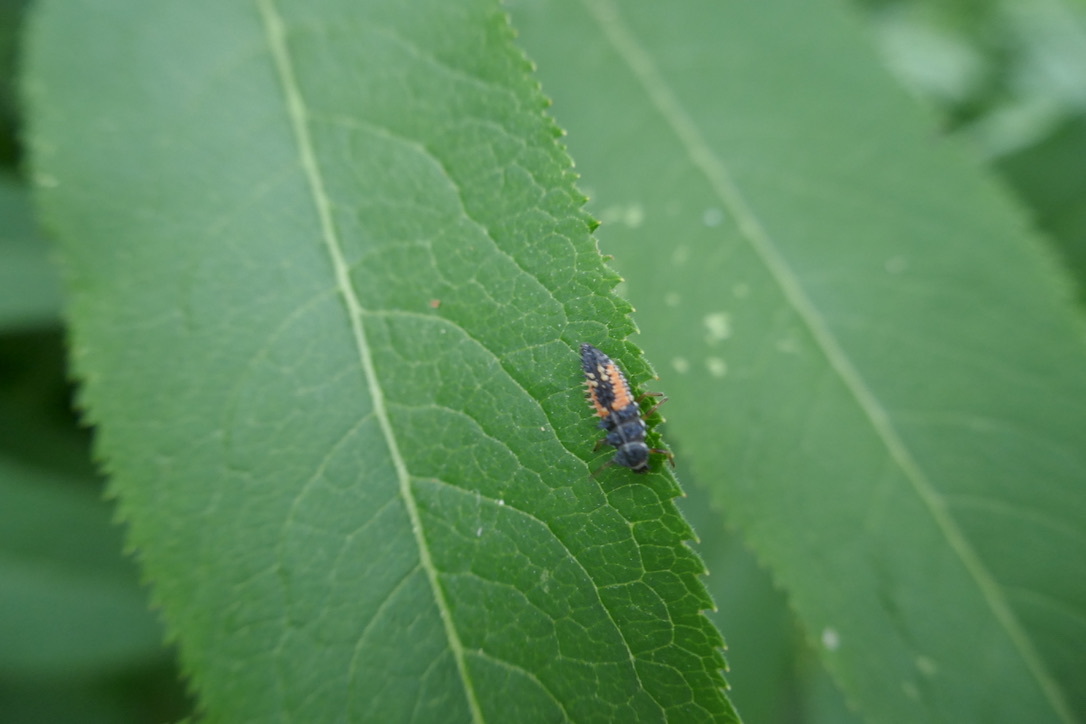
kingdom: Animalia
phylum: Arthropoda
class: Insecta
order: Coleoptera
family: Coccinellidae
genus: Harmonia
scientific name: Harmonia axyridis
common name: Harlequin ladybird
